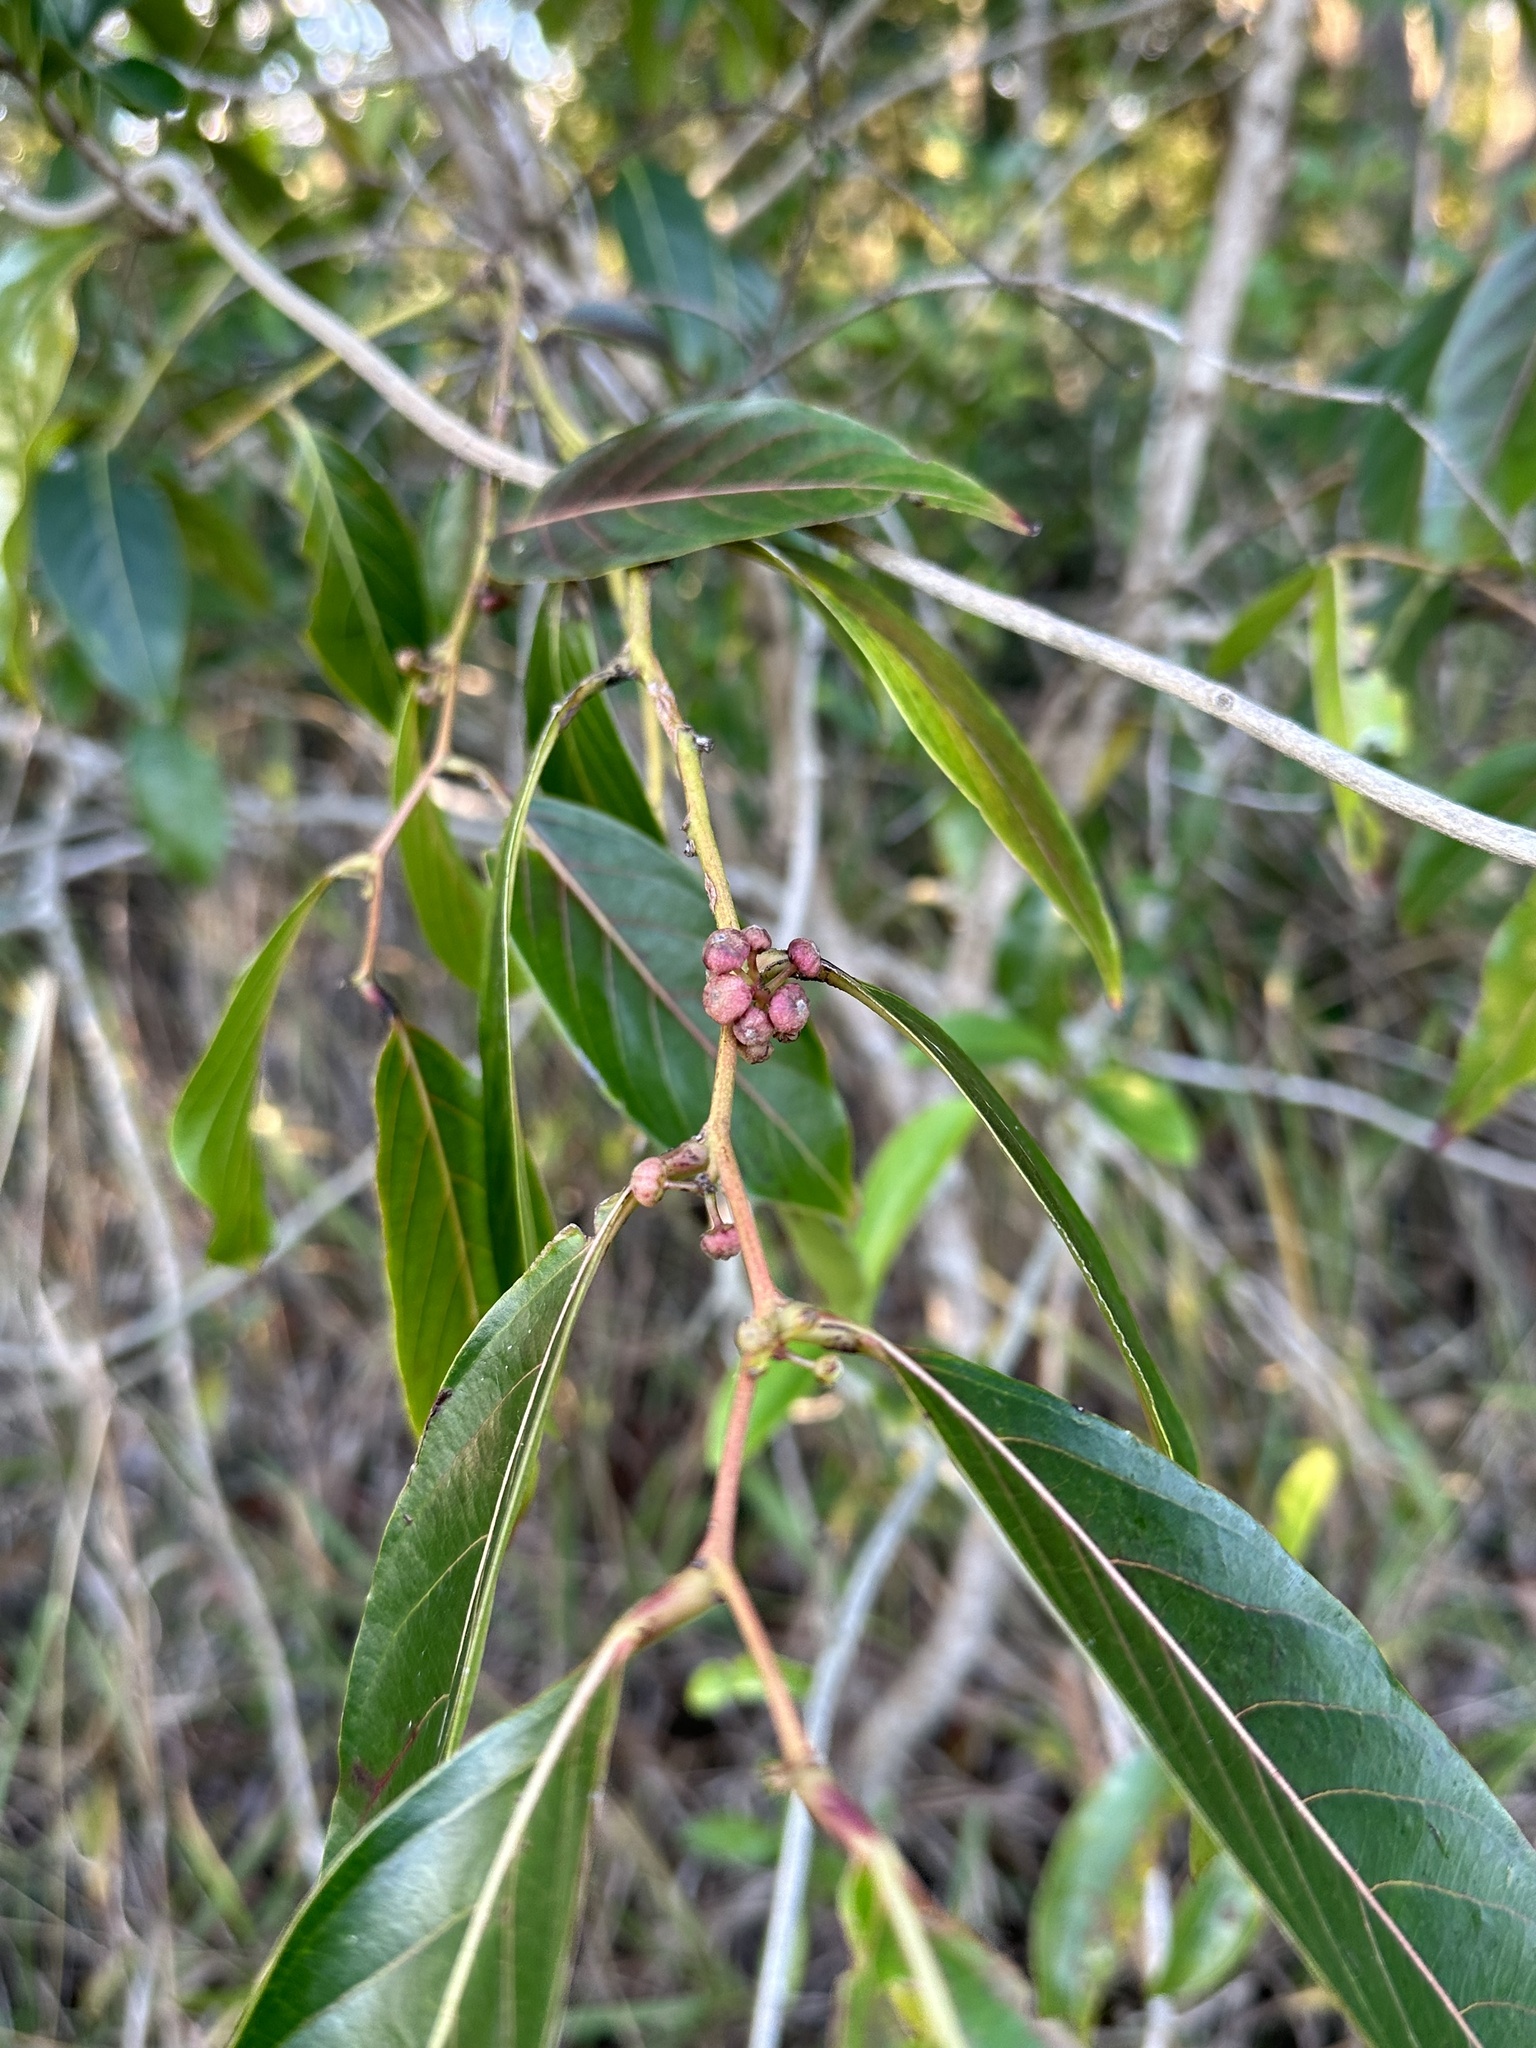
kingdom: Plantae
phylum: Tracheophyta
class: Magnoliopsida
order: Malpighiales
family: Phyllanthaceae
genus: Glochidion
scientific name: Glochidion zeylanicum
